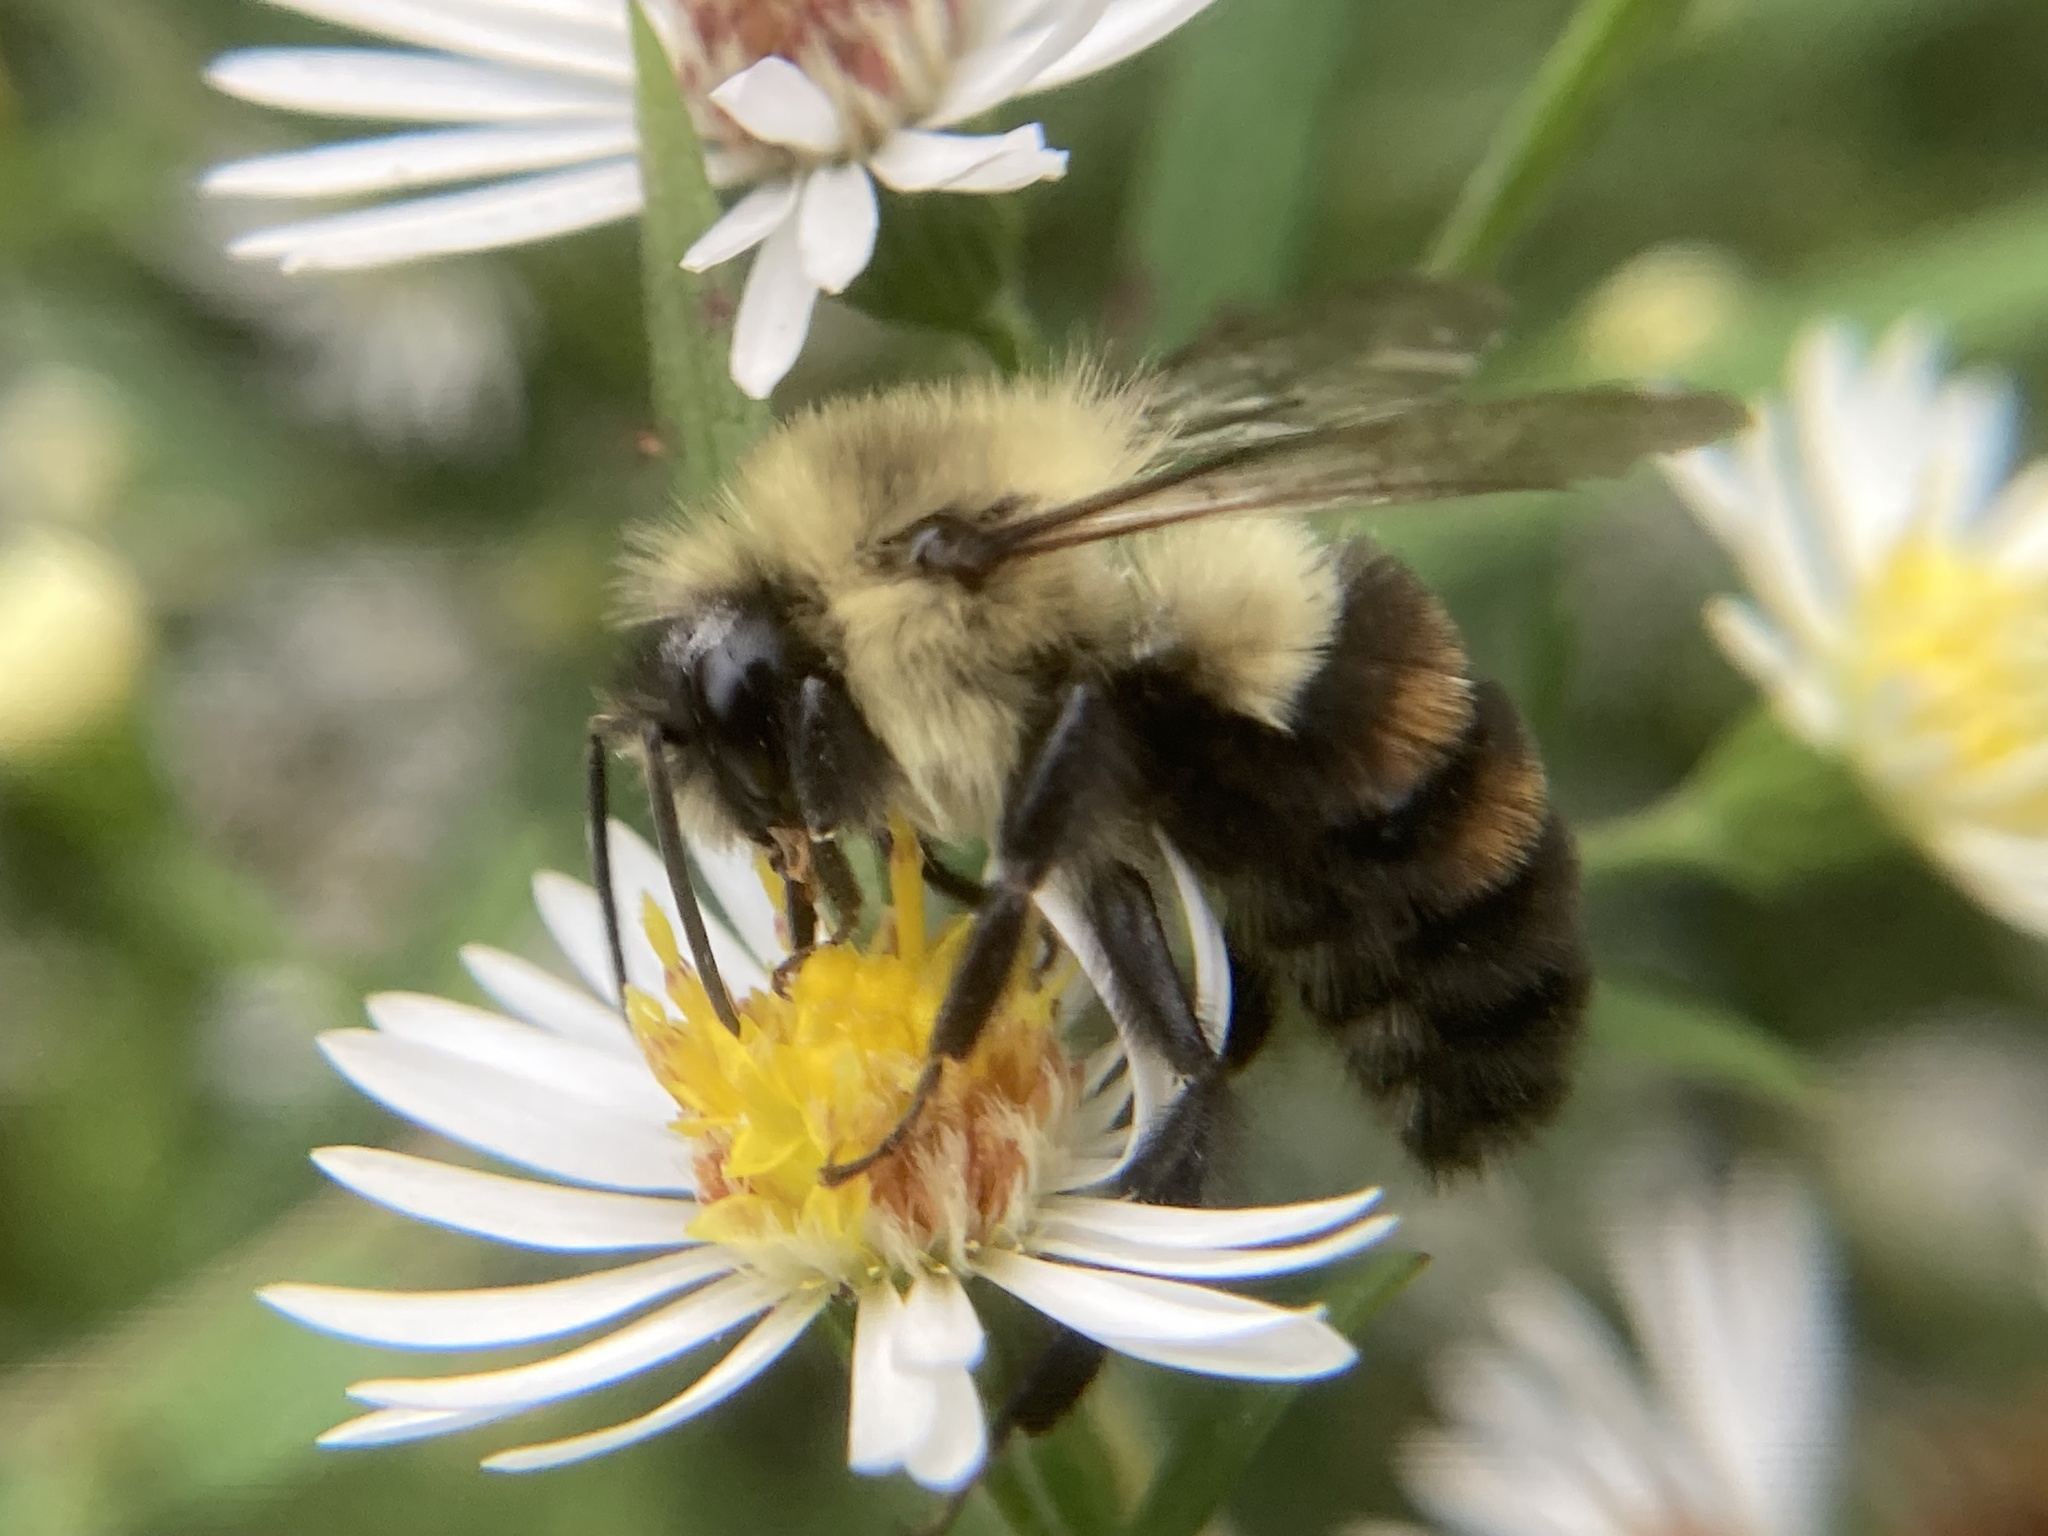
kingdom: Animalia
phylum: Arthropoda
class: Insecta
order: Hymenoptera
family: Apidae
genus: Bombus
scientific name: Bombus impatiens
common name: Common eastern bumble bee
